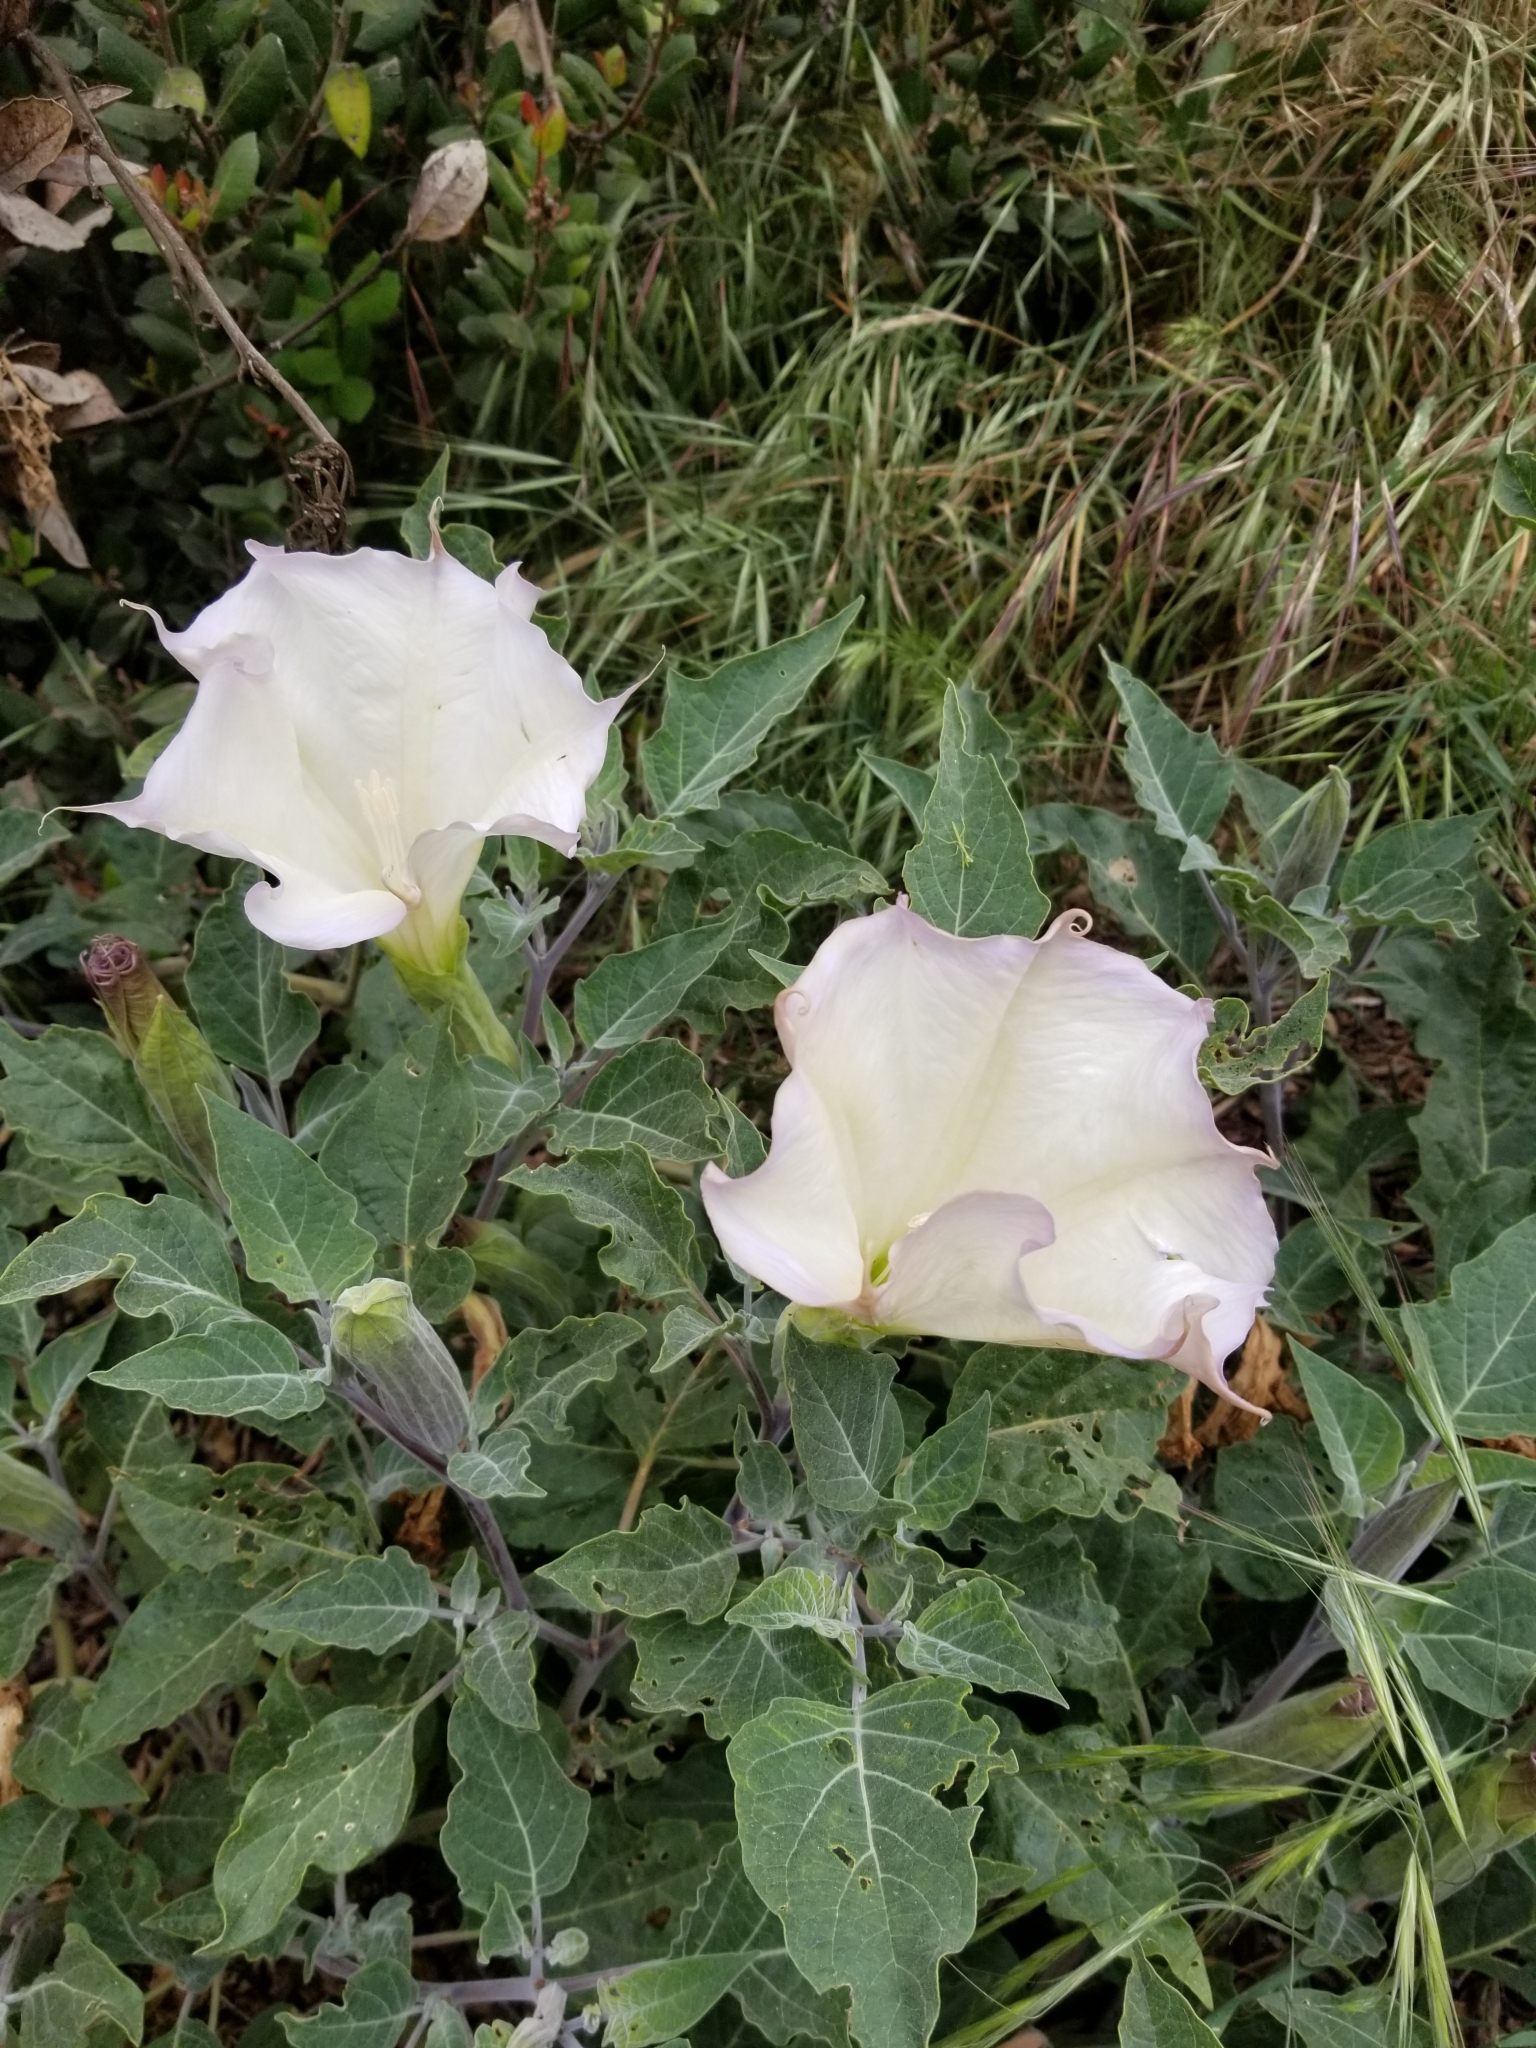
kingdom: Plantae
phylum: Tracheophyta
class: Magnoliopsida
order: Solanales
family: Solanaceae
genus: Datura
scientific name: Datura wrightii
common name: Sacred thorn-apple
